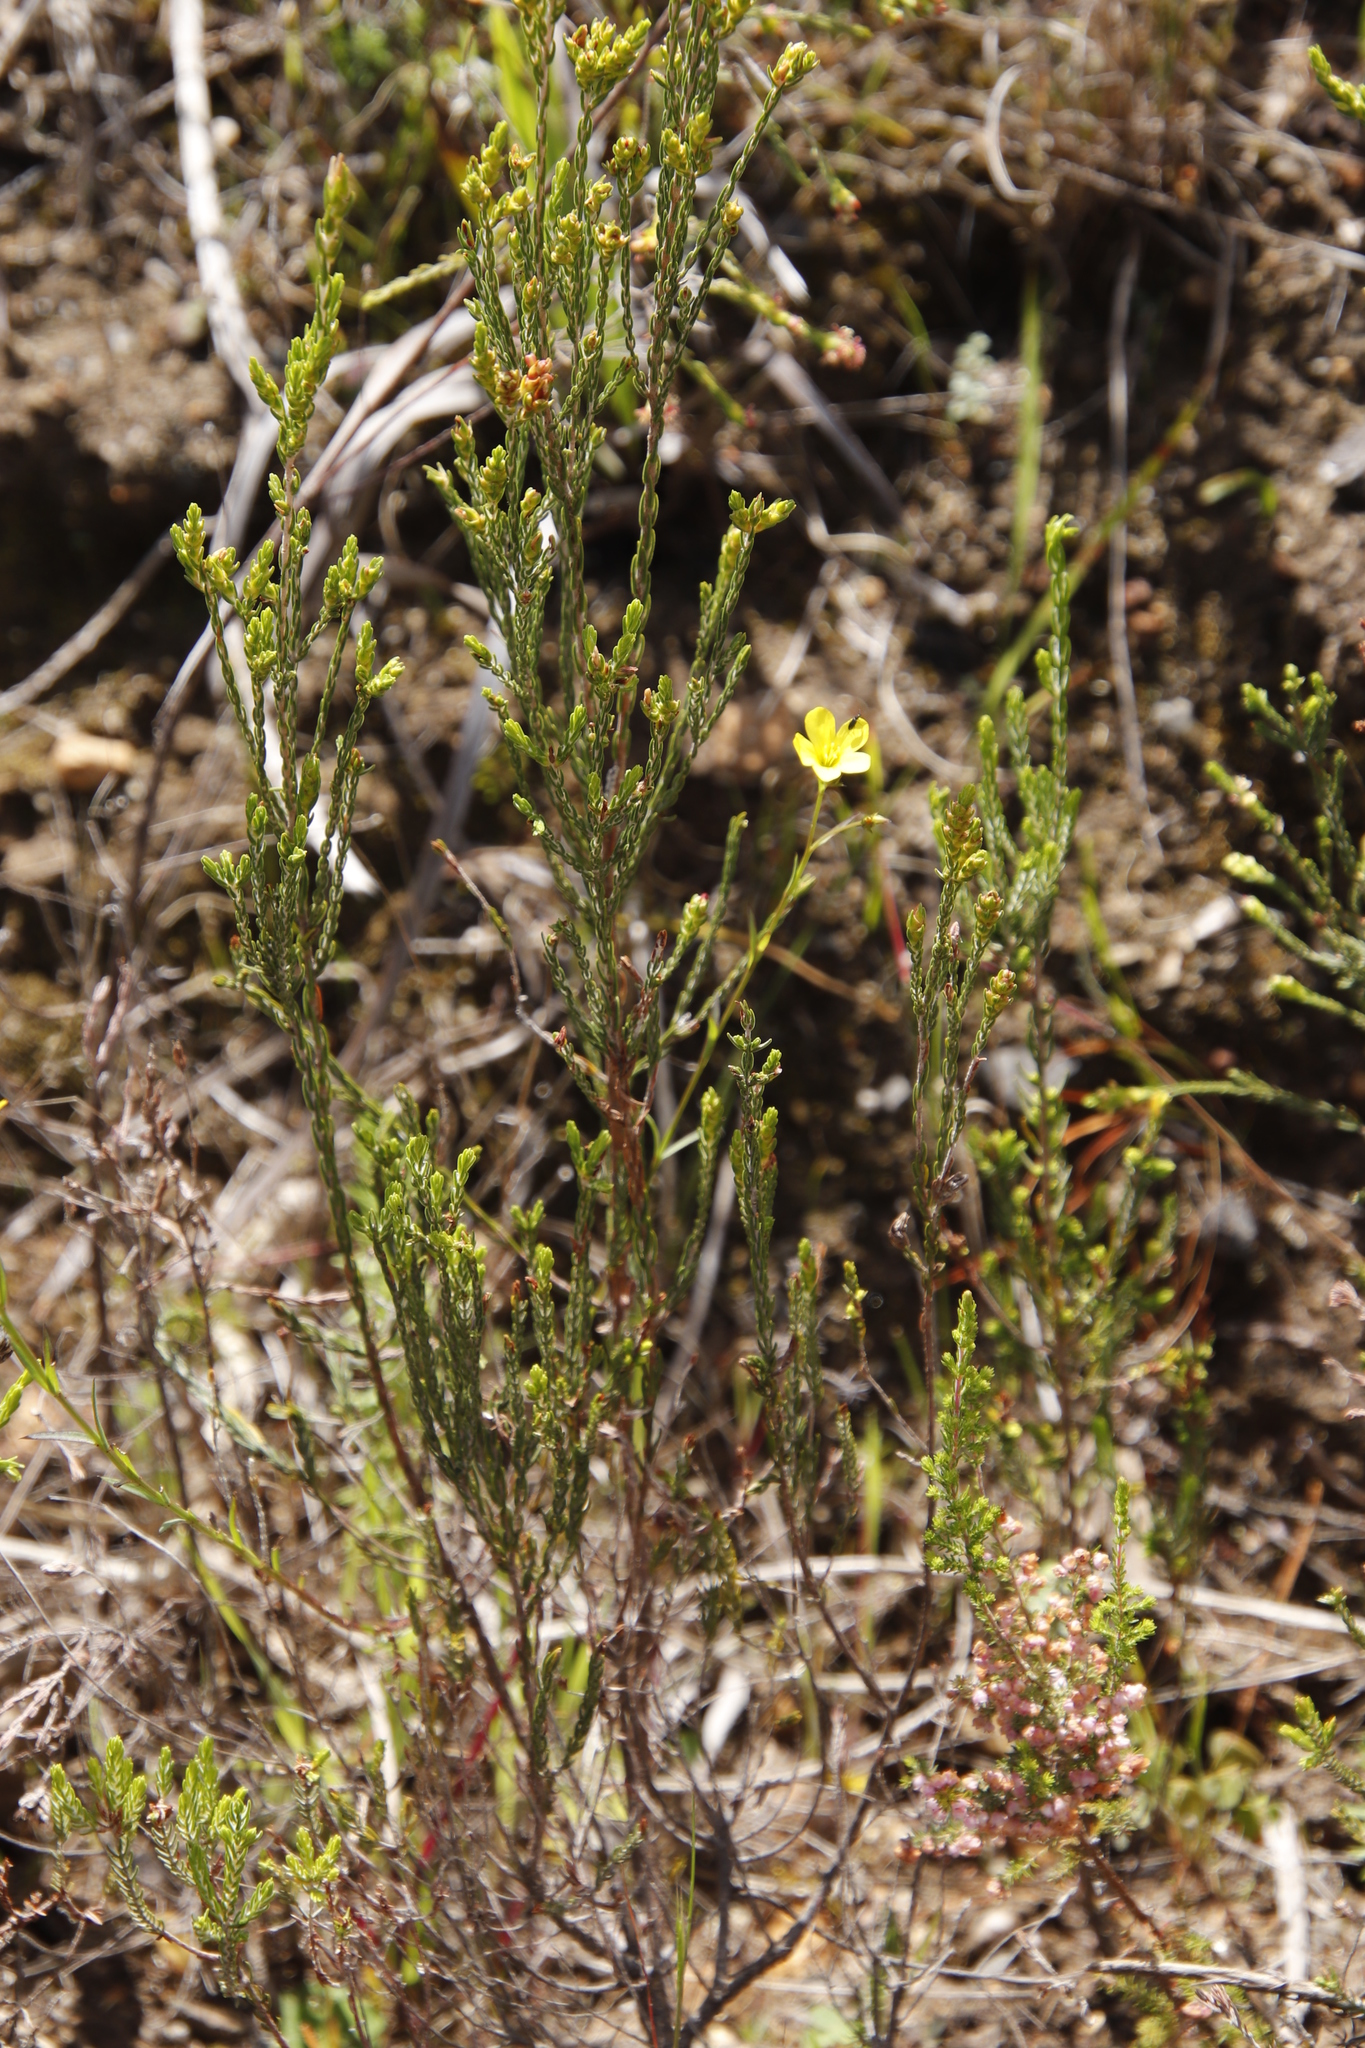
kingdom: Plantae
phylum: Tracheophyta
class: Magnoliopsida
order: Malpighiales
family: Linaceae
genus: Linum
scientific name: Linum africanum
